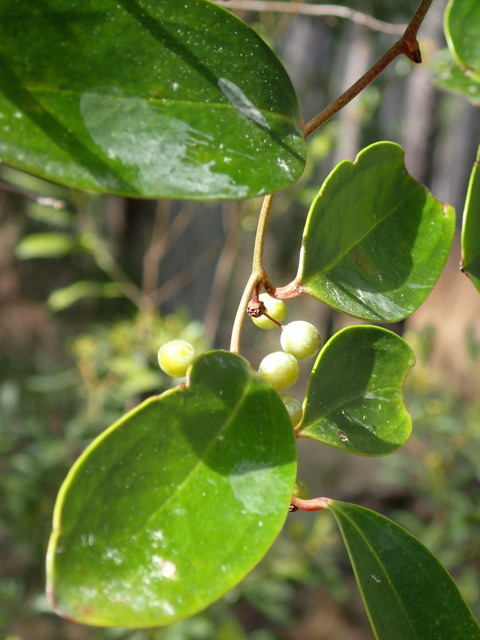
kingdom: Plantae
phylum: Tracheophyta
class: Liliopsida
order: Liliales
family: Smilacaceae
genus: Smilax
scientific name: Smilax laurifolia
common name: Bamboovine
